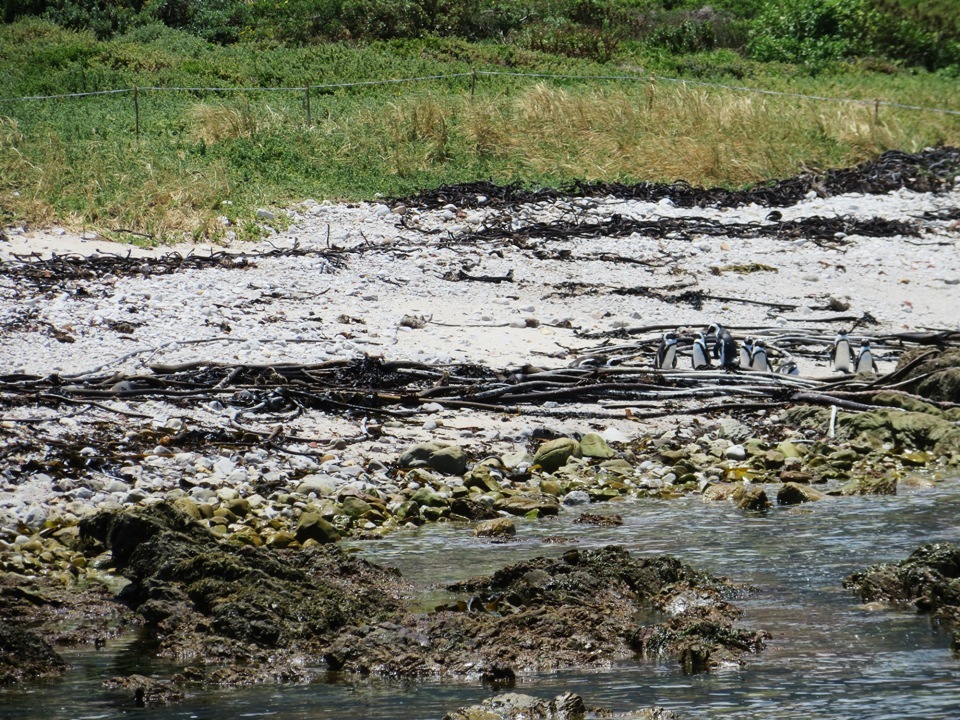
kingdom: Animalia
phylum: Chordata
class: Aves
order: Sphenisciformes
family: Spheniscidae
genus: Spheniscus
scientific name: Spheniscus demersus
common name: African penguin
